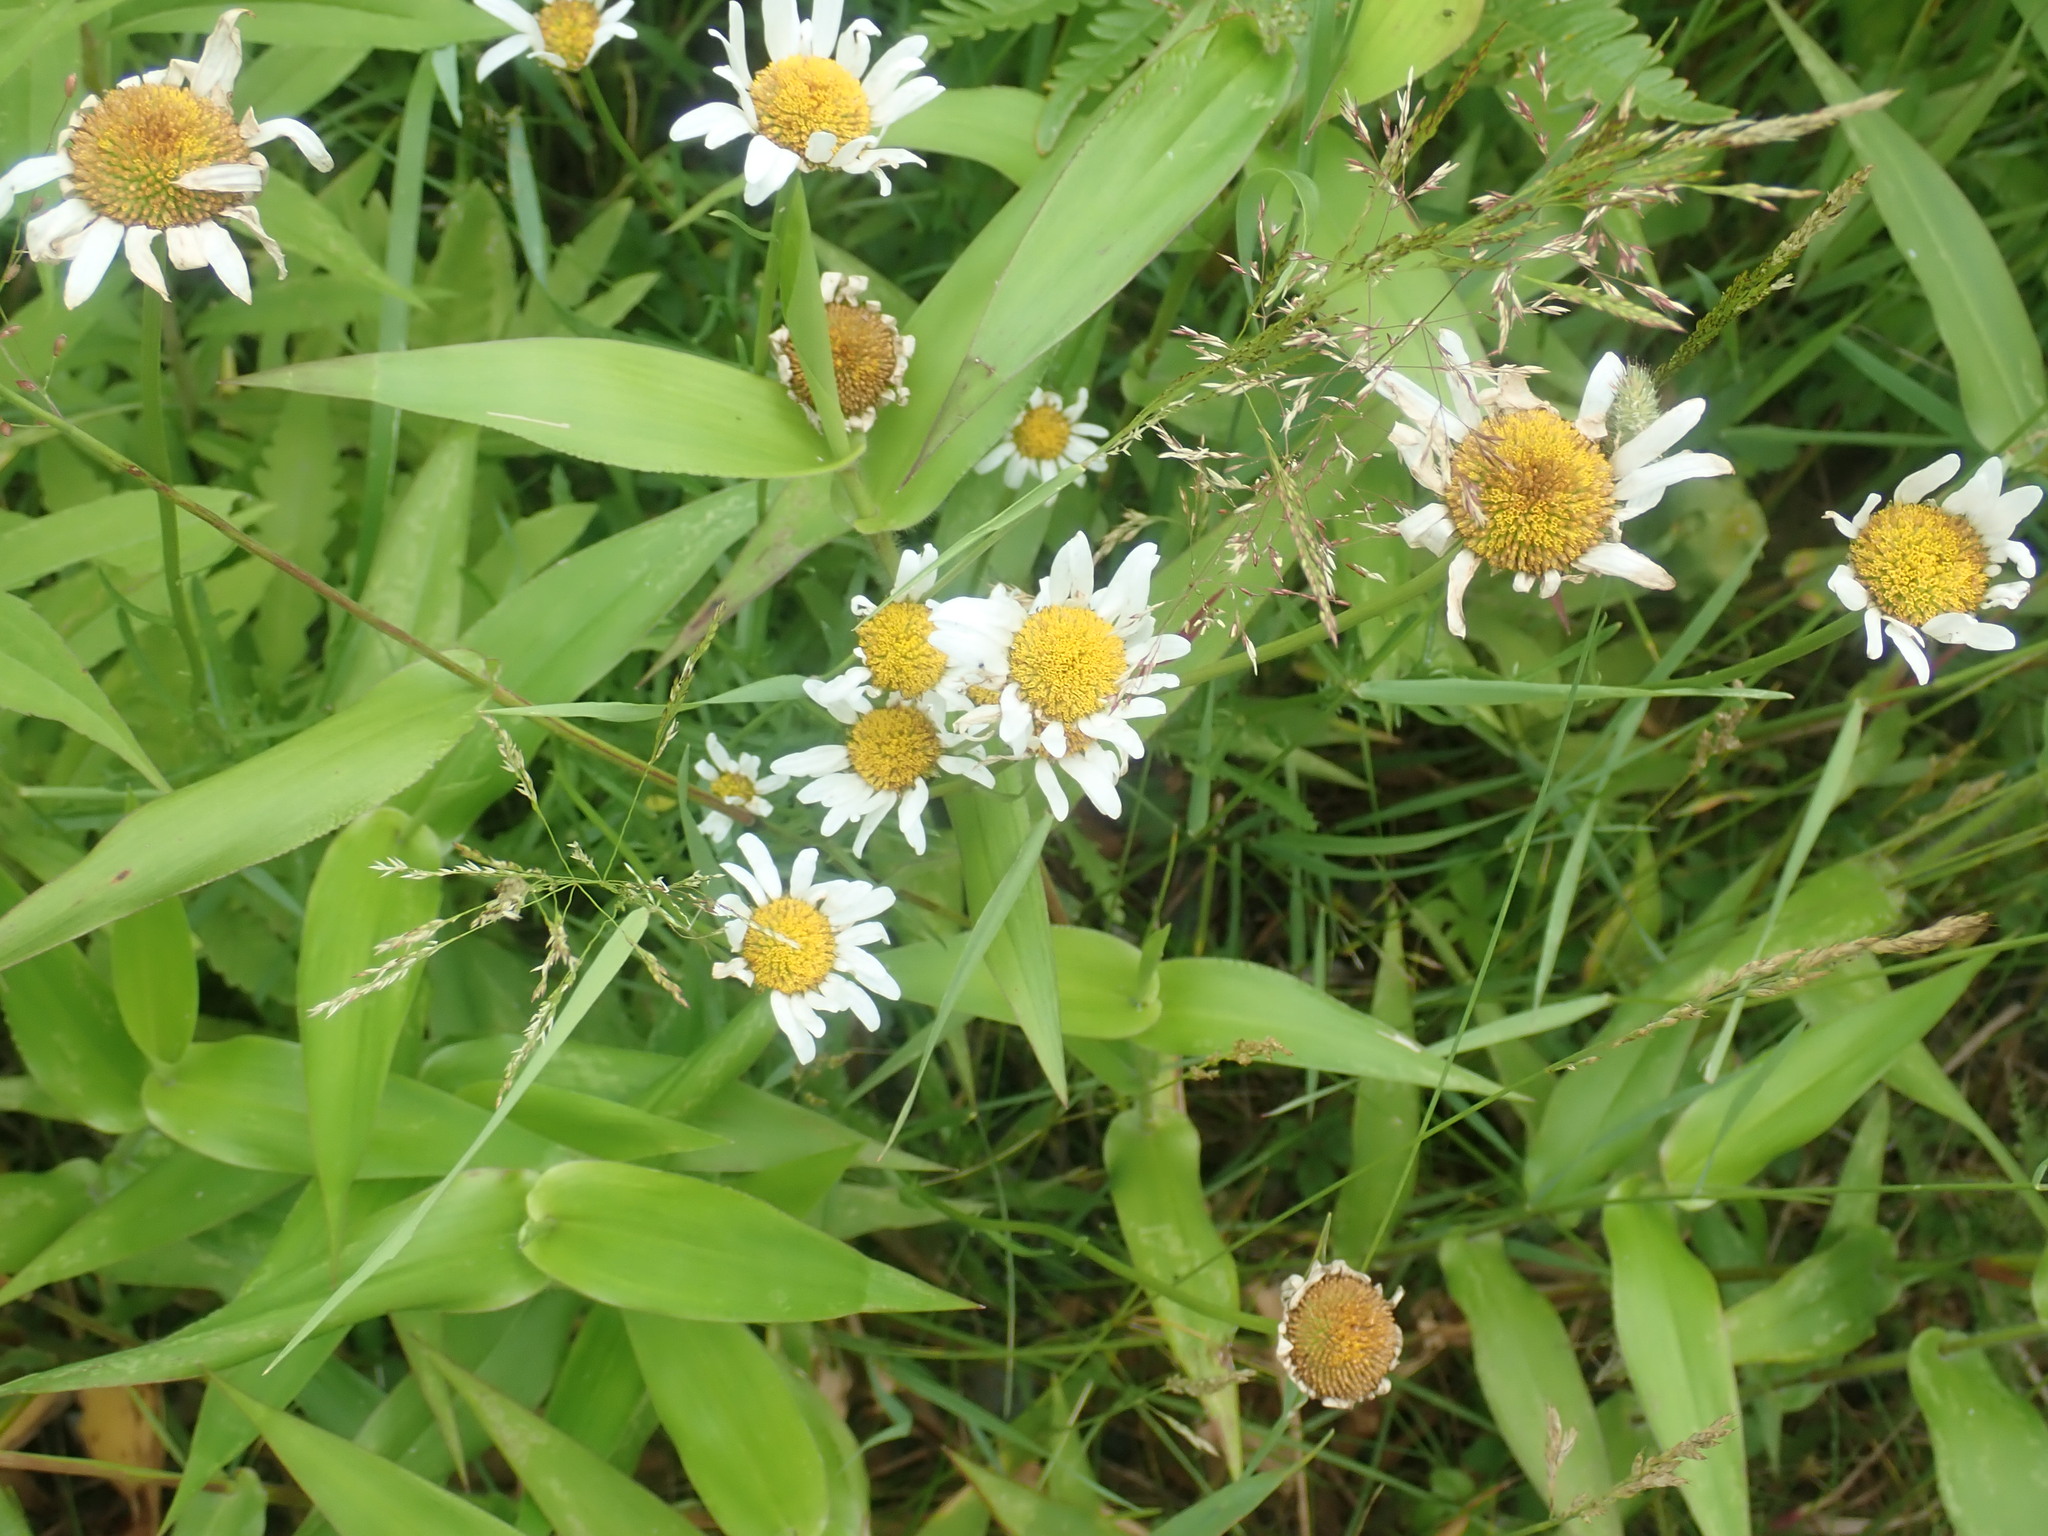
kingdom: Plantae
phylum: Tracheophyta
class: Magnoliopsida
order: Asterales
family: Asteraceae
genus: Leucanthemum
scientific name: Leucanthemum vulgare
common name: Oxeye daisy
